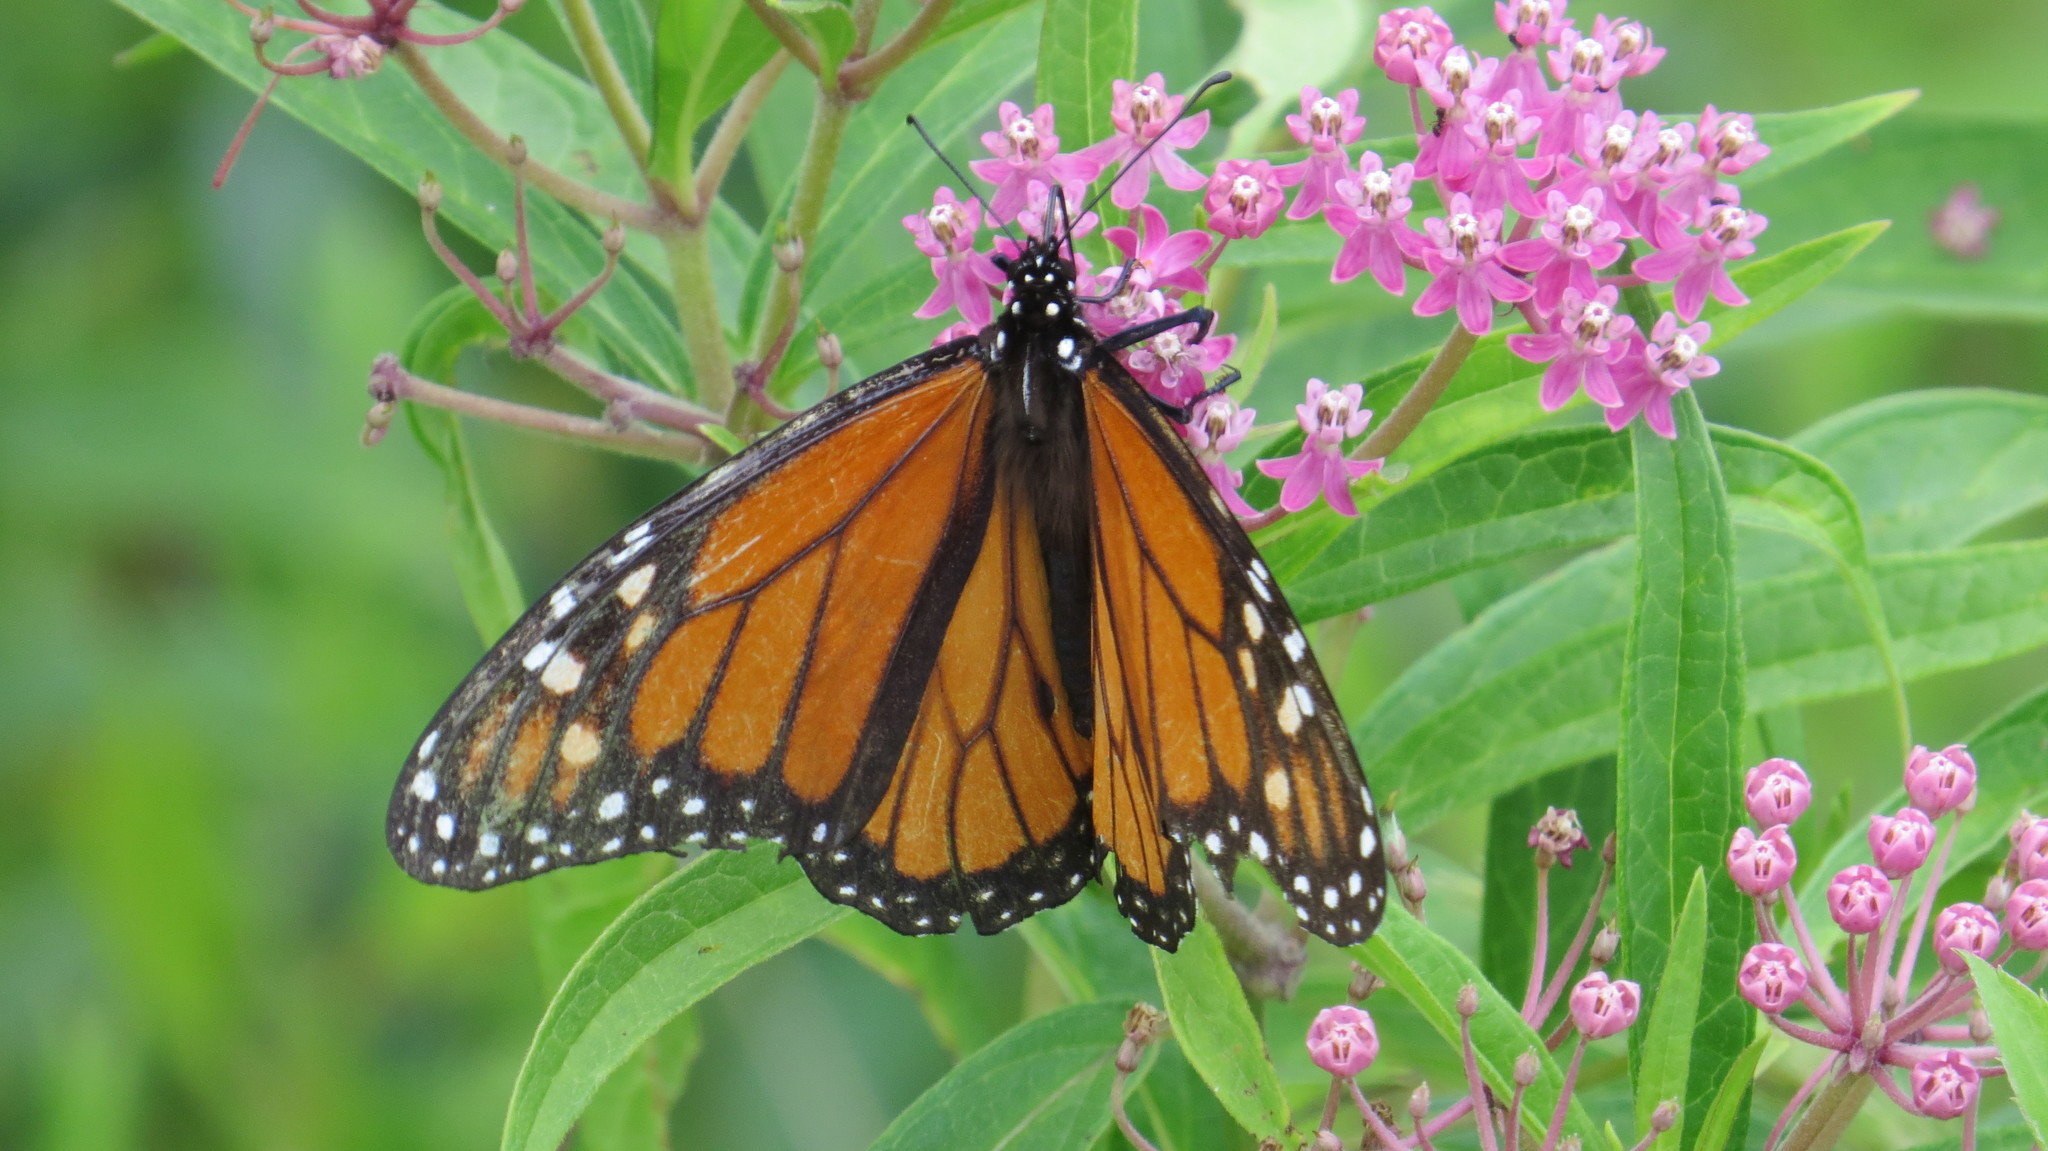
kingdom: Animalia
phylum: Arthropoda
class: Insecta
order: Lepidoptera
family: Nymphalidae
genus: Danaus
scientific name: Danaus plexippus
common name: Monarch
